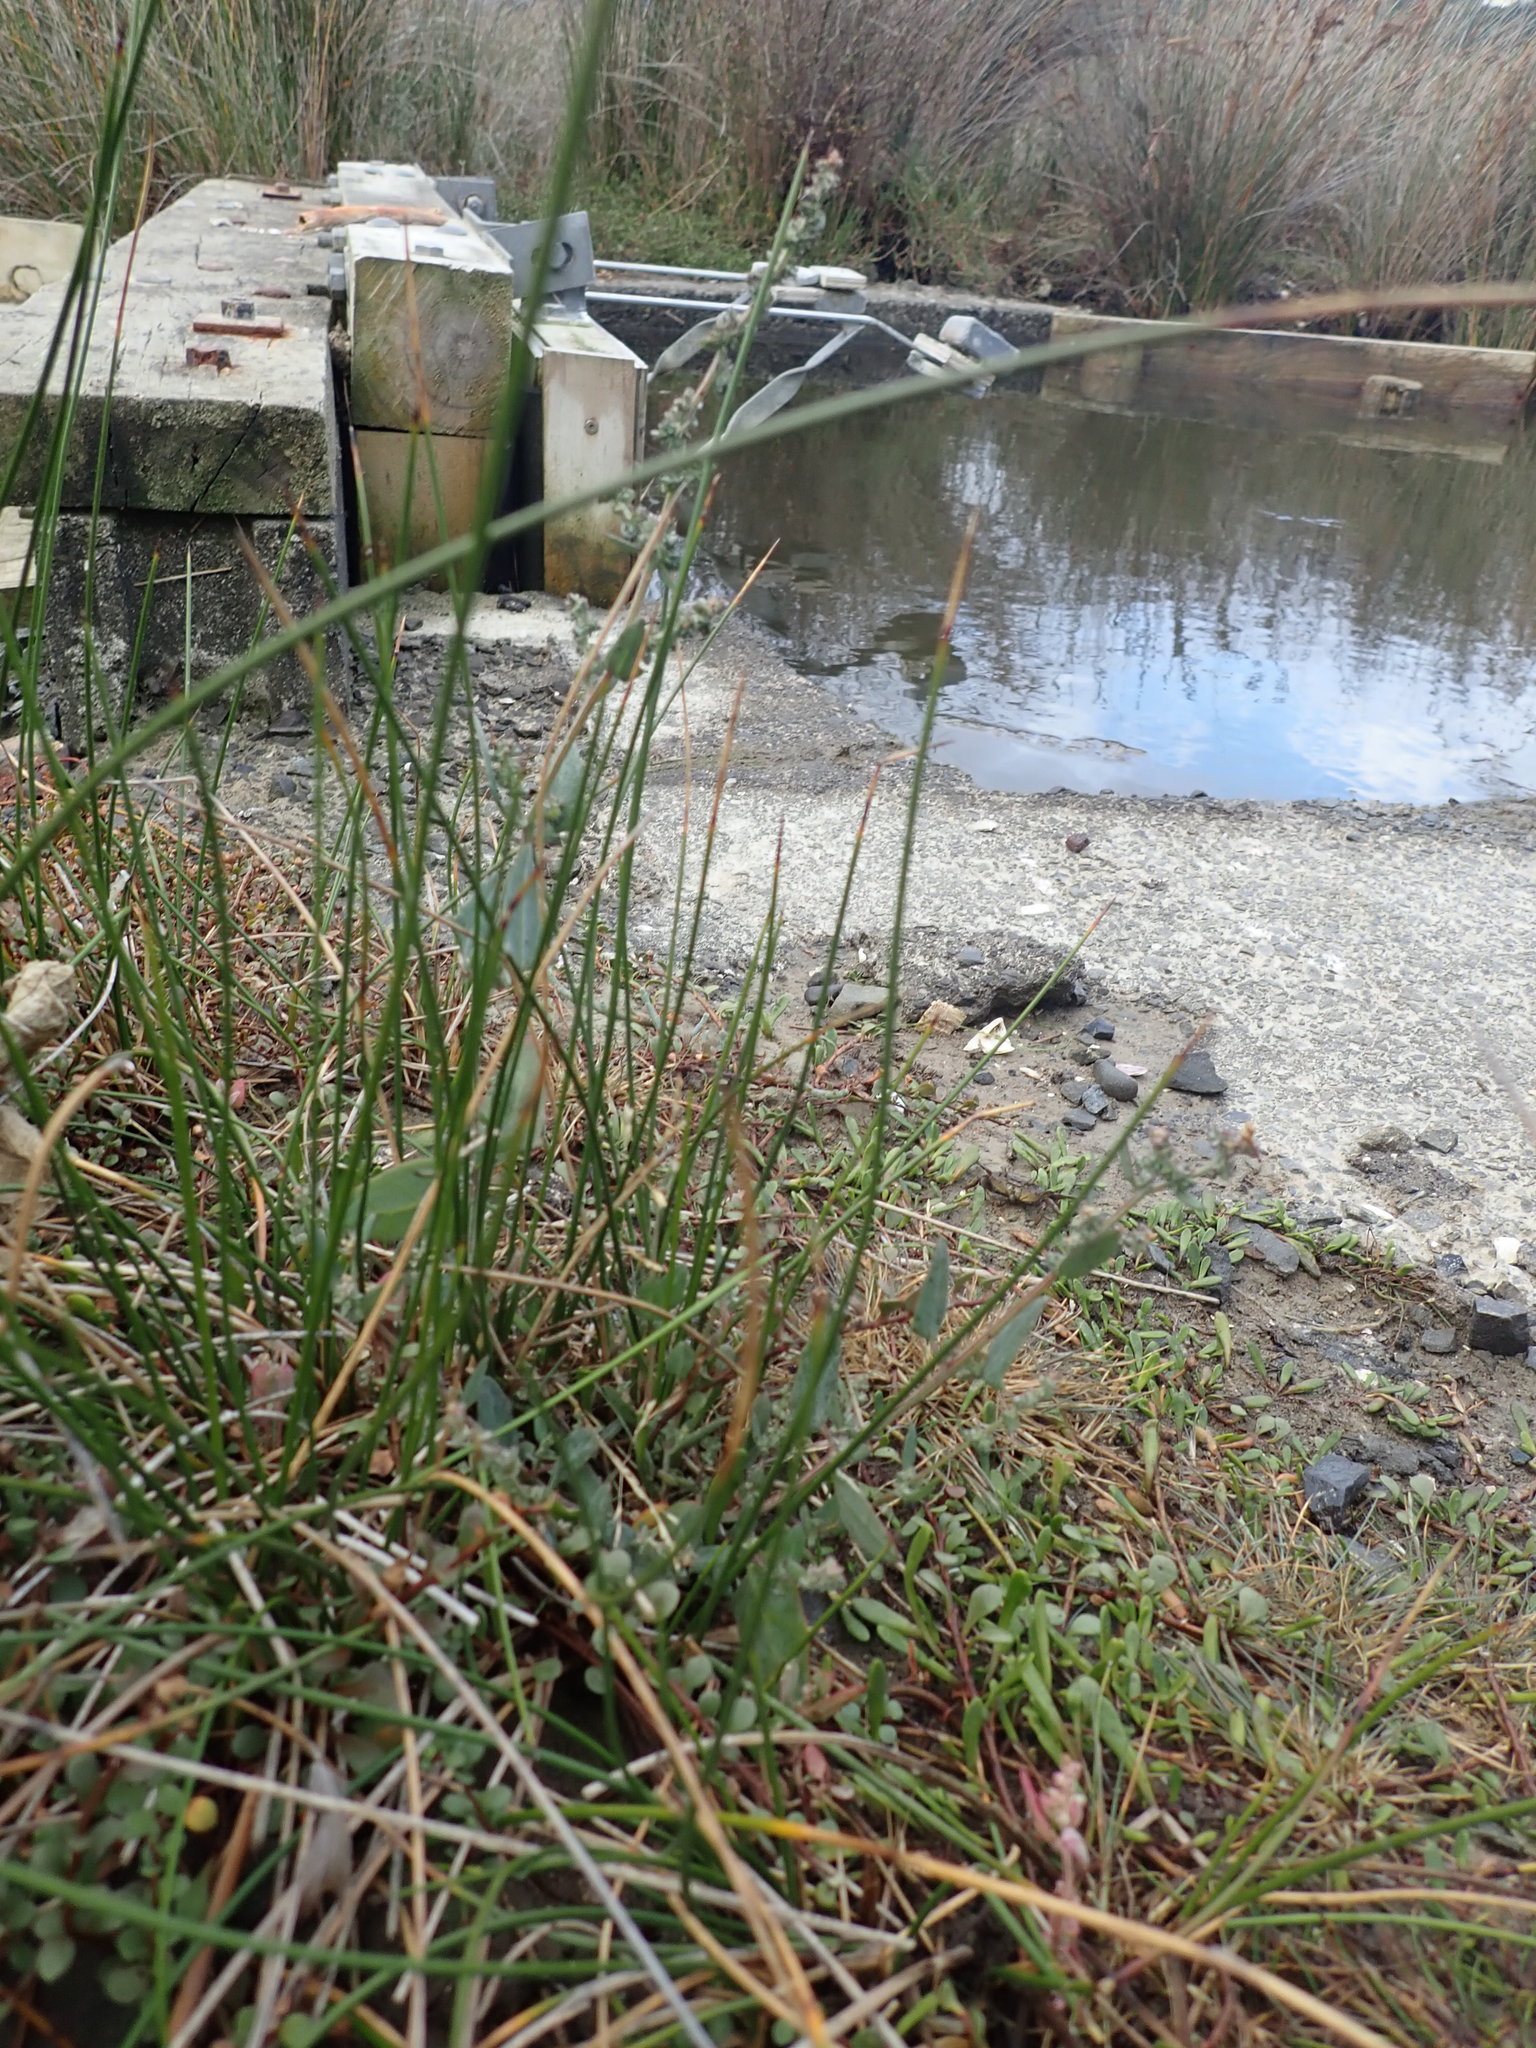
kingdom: Plantae
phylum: Tracheophyta
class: Magnoliopsida
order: Caryophyllales
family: Amaranthaceae
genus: Atriplex
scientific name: Atriplex prostrata
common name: Spear-leaved orache
